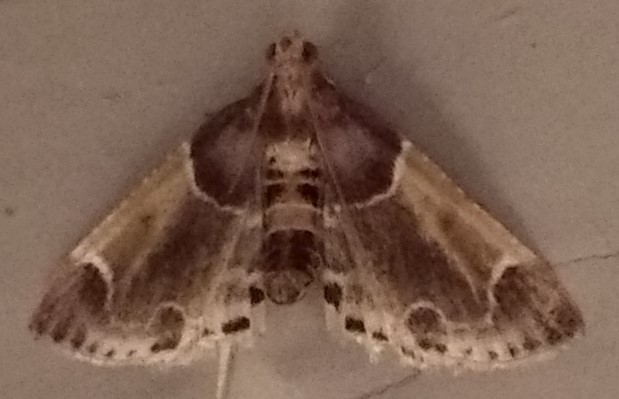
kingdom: Animalia
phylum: Arthropoda
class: Insecta
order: Lepidoptera
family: Pyralidae
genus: Pyralis
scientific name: Pyralis farinalis
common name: Meal moth
